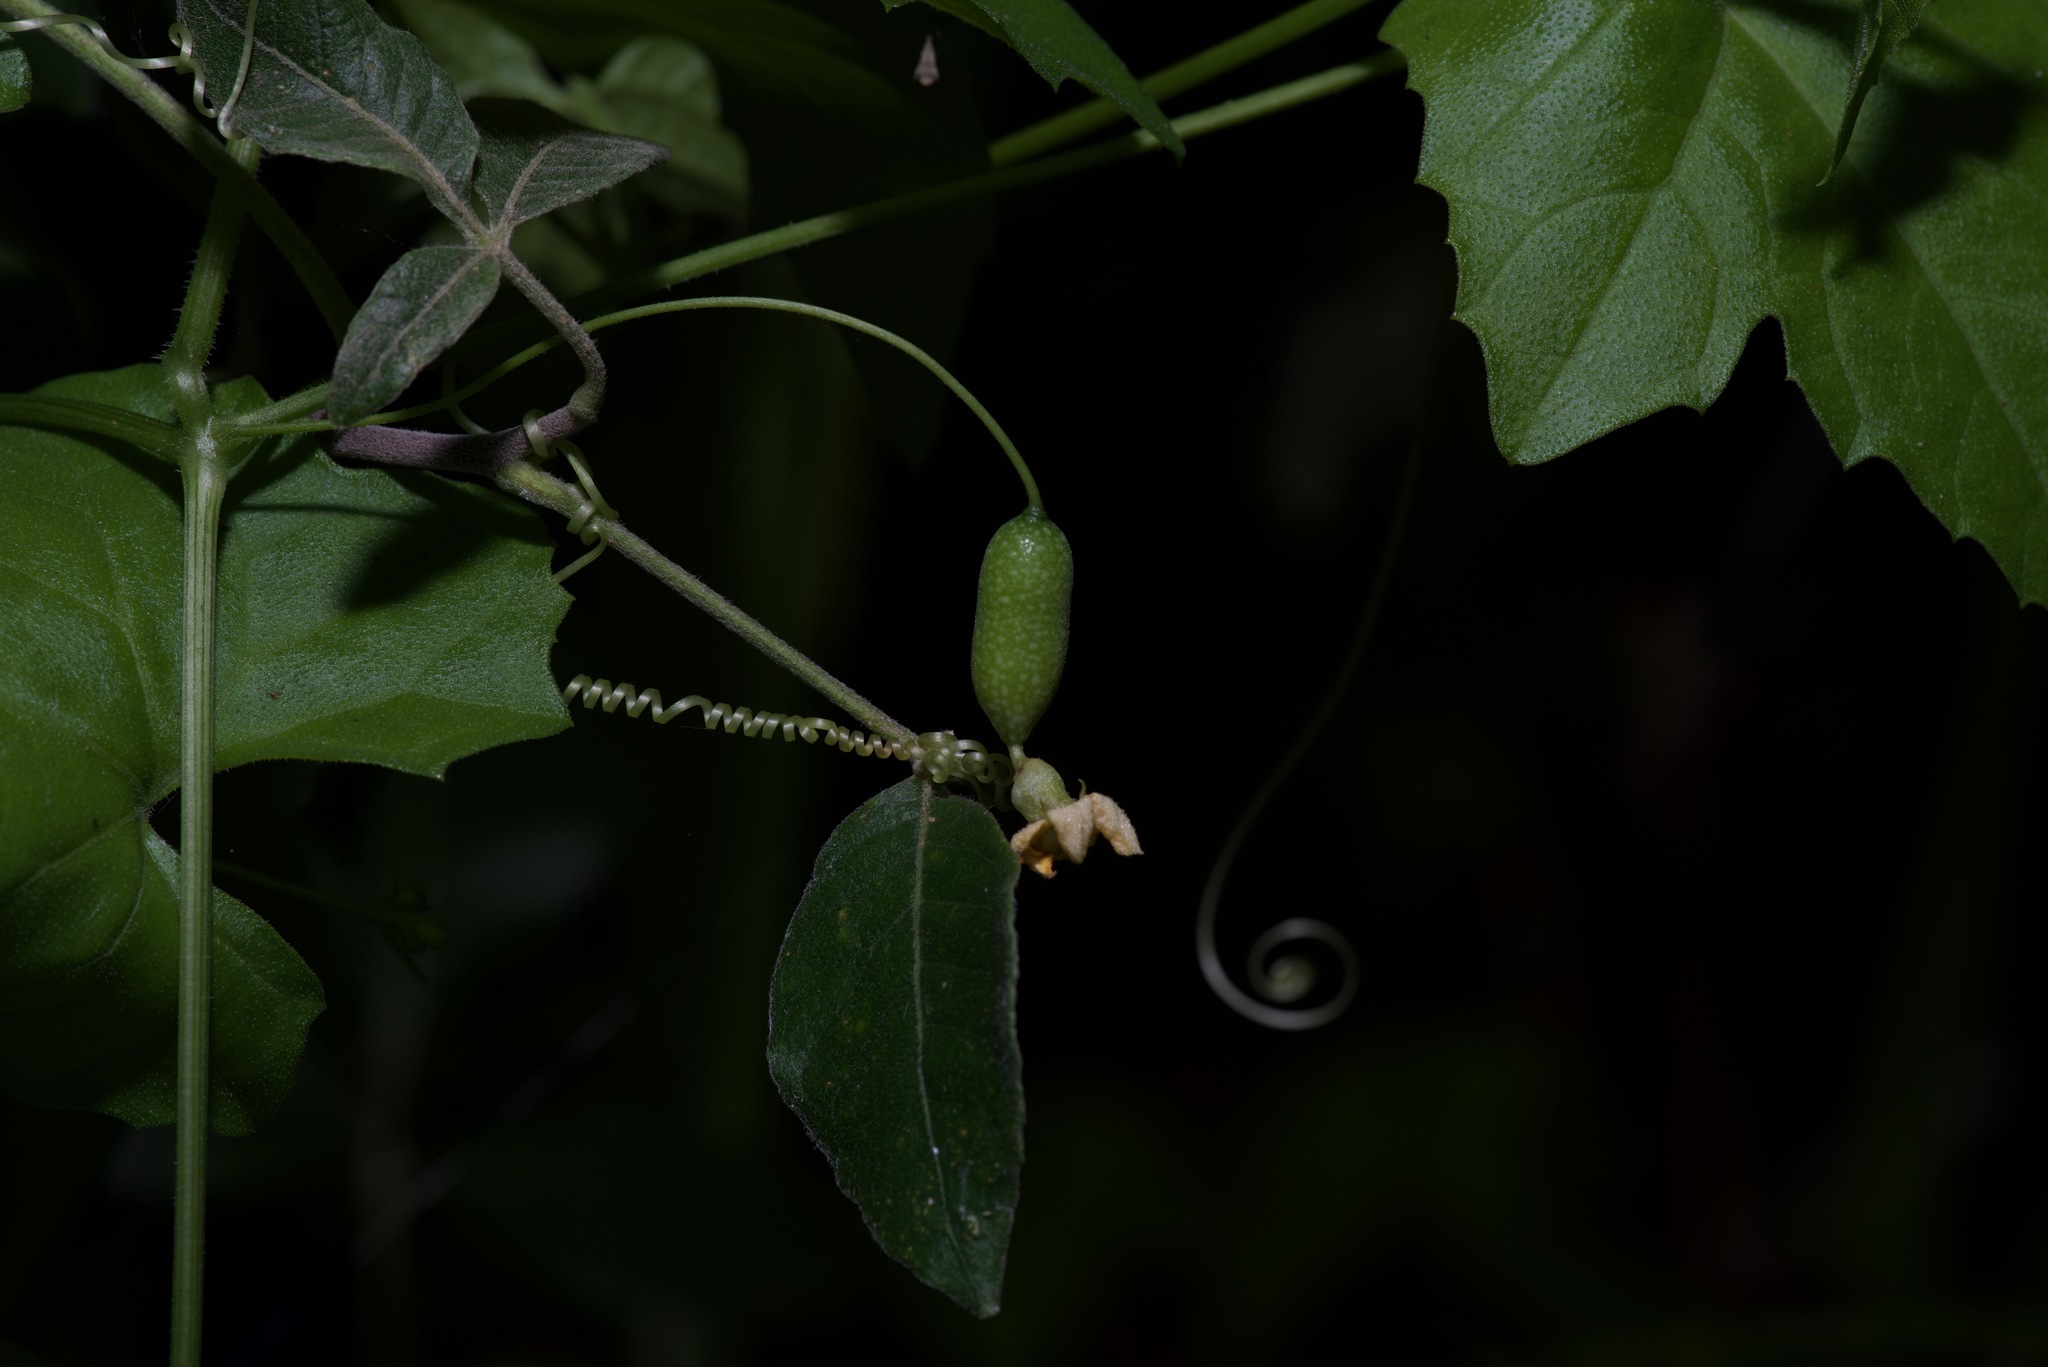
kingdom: Plantae
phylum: Tracheophyta
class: Magnoliopsida
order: Cucurbitales
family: Cucurbitaceae
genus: Melothria
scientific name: Melothria pendula
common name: Creeping-cucumber
